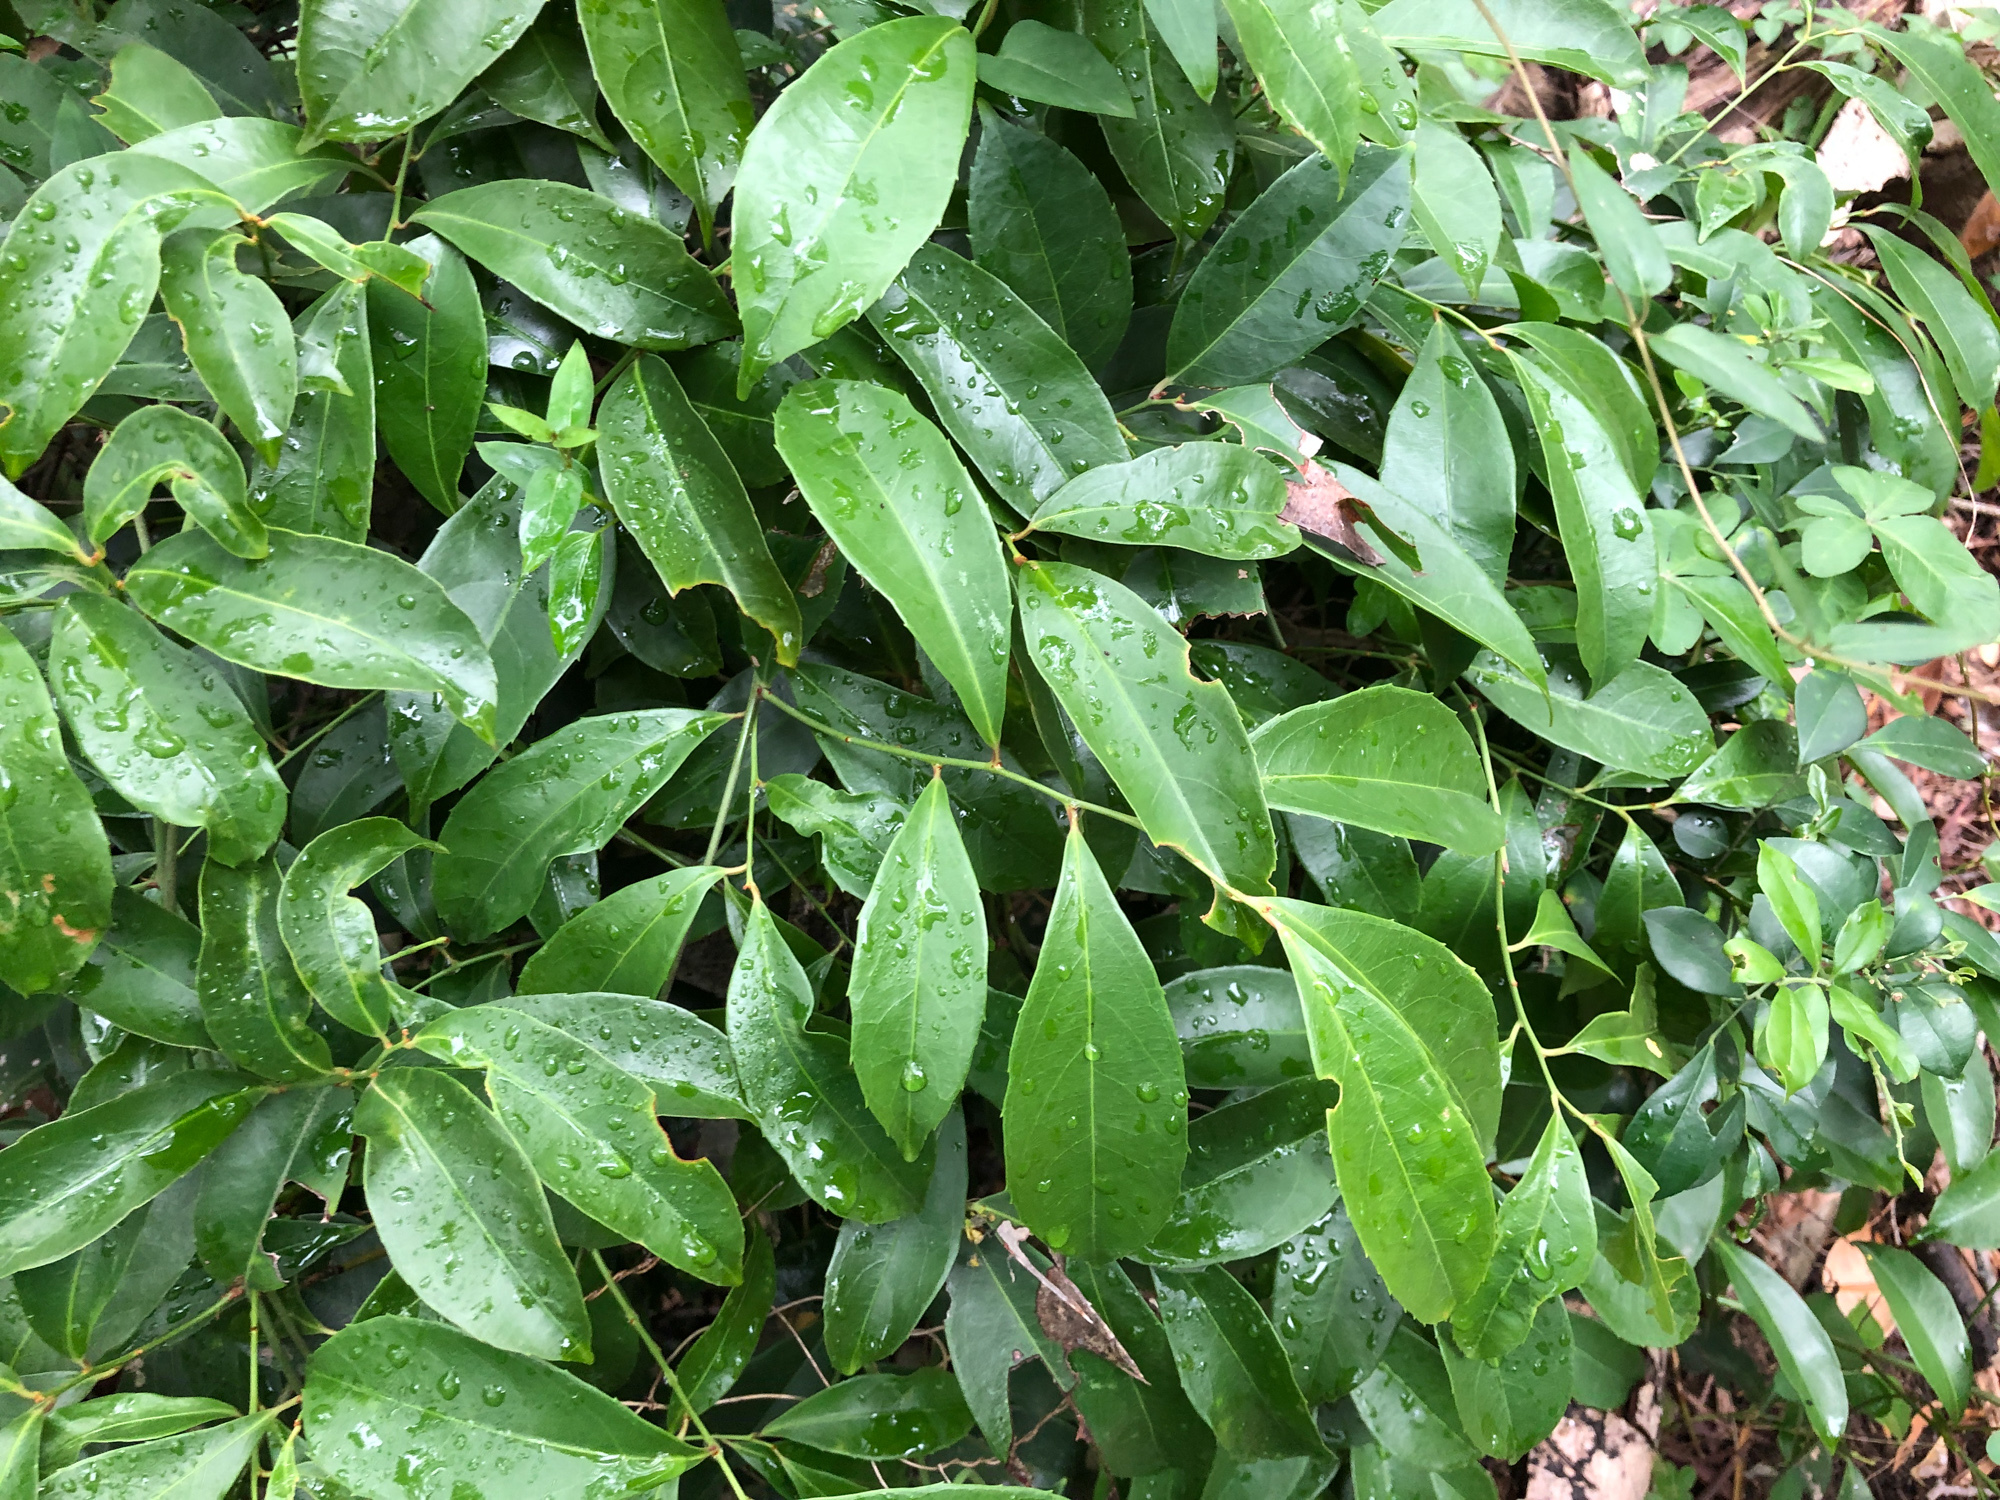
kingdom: Plantae
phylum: Tracheophyta
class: Magnoliopsida
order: Celastrales
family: Celastraceae
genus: Celastrus
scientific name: Celastrus hindsii
